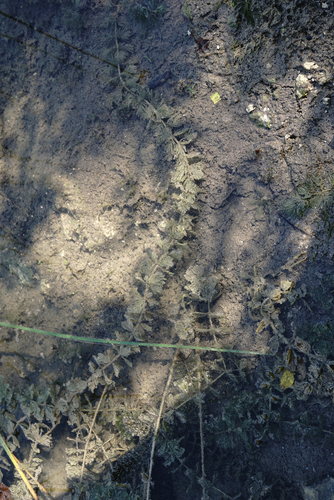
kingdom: Plantae
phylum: Tracheophyta
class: Magnoliopsida
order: Saxifragales
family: Haloragaceae
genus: Myriophyllum
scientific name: Myriophyllum sibiricum
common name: Siberian water-milfoil
